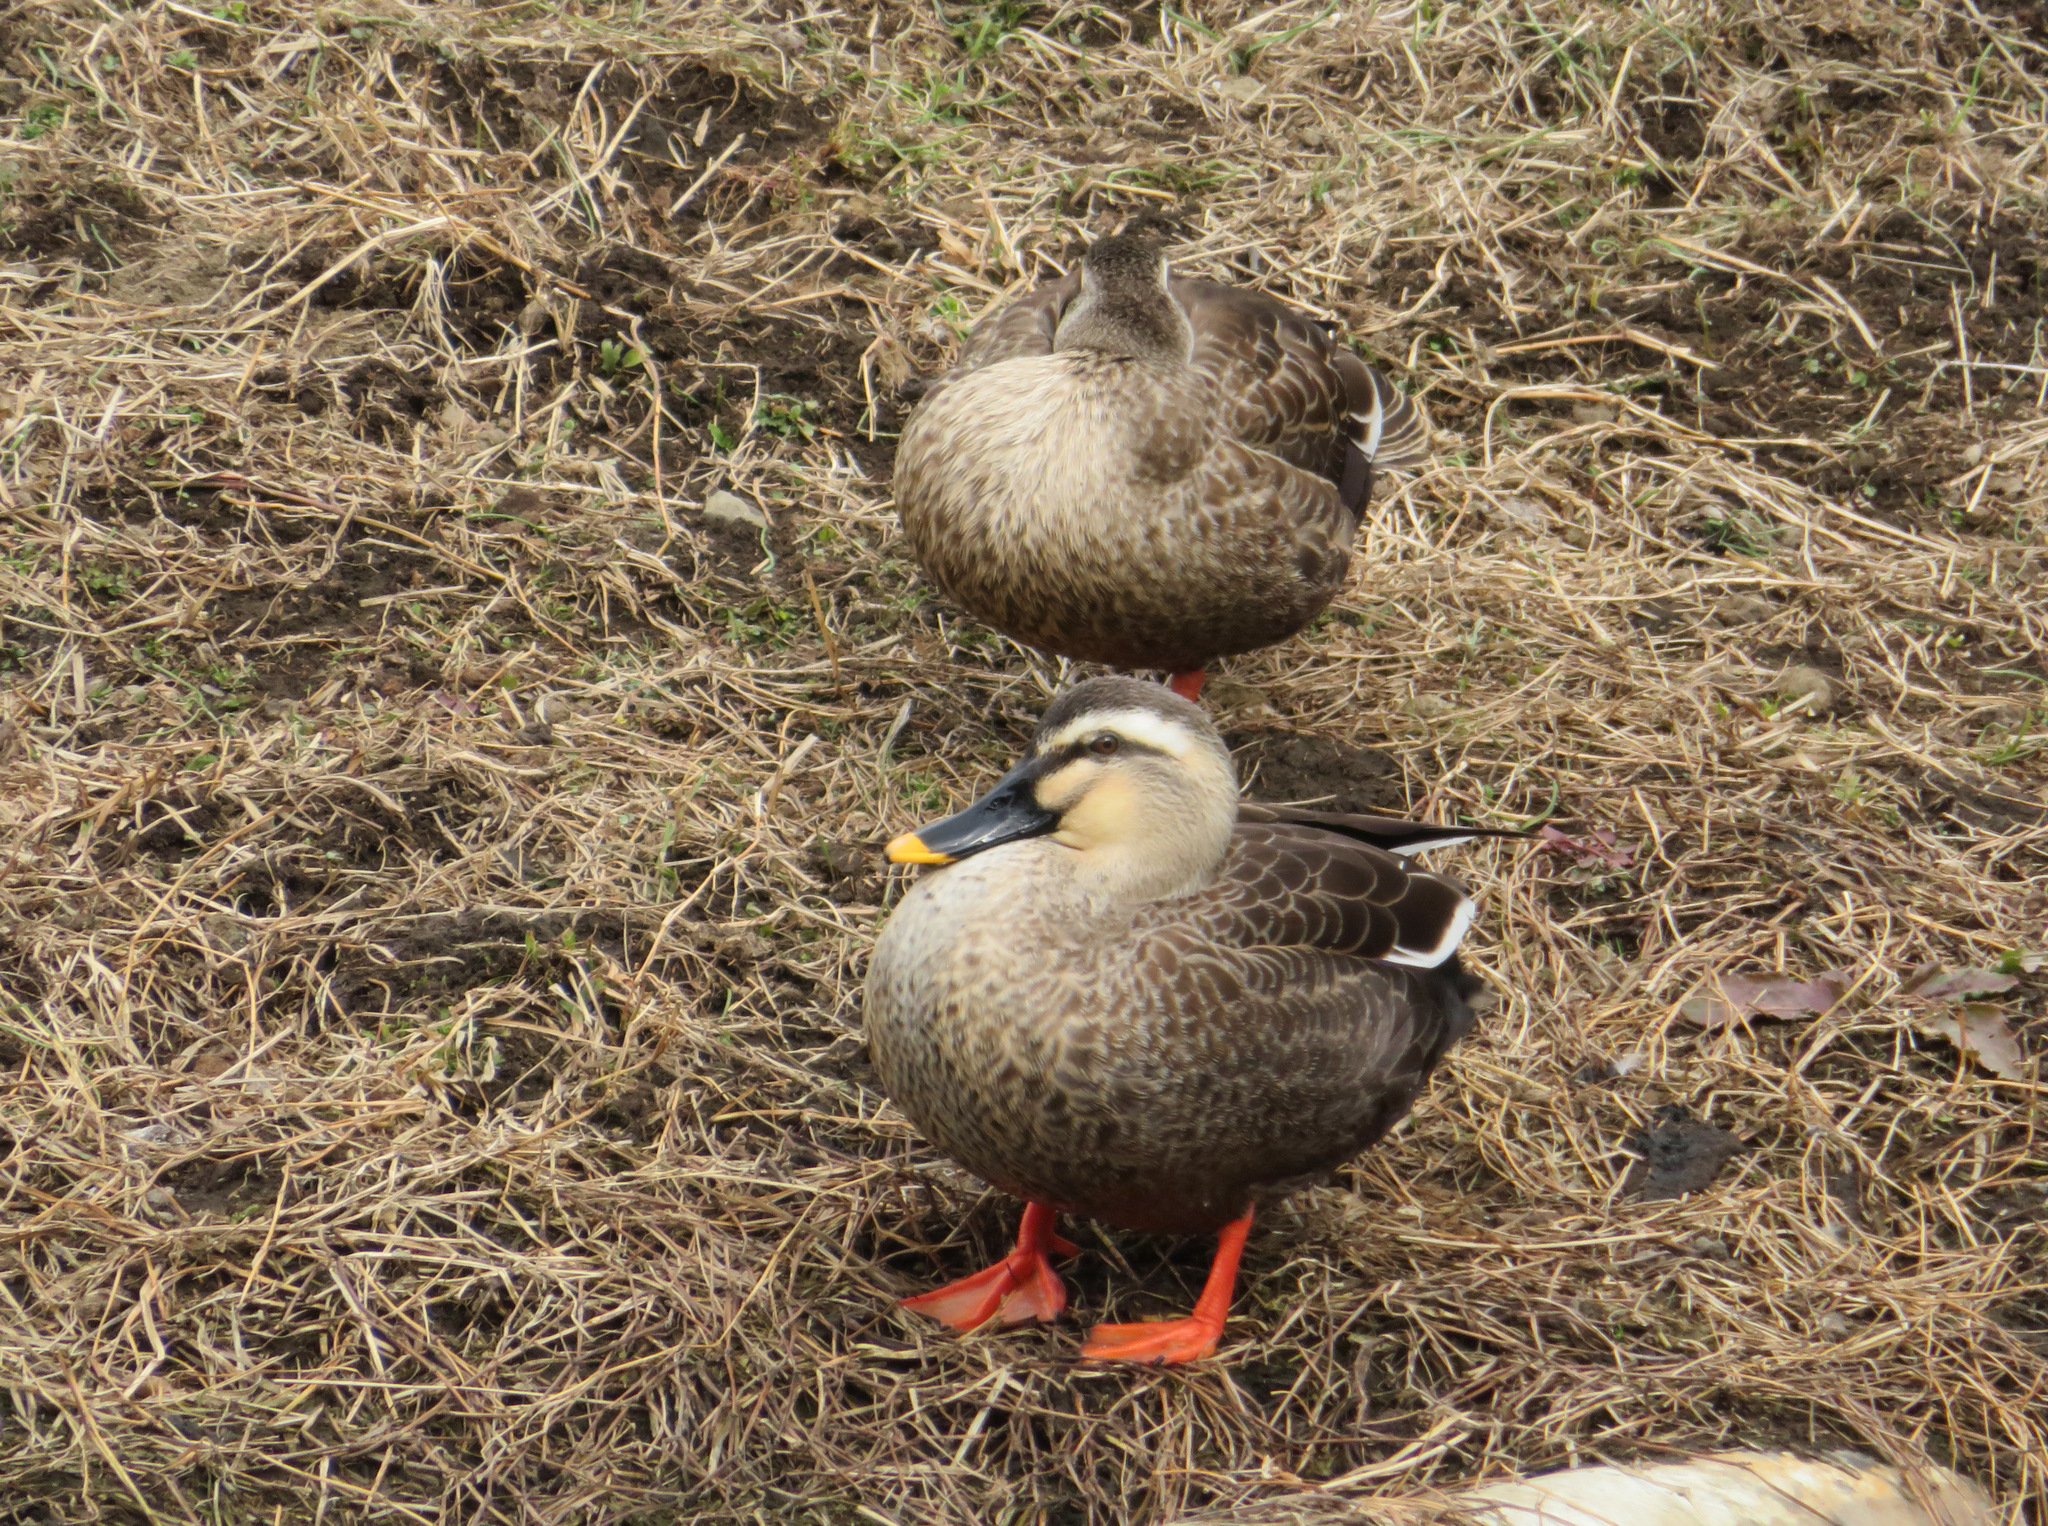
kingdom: Animalia
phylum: Chordata
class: Aves
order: Anseriformes
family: Anatidae
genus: Anas
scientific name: Anas zonorhyncha
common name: Eastern spot-billed duck
